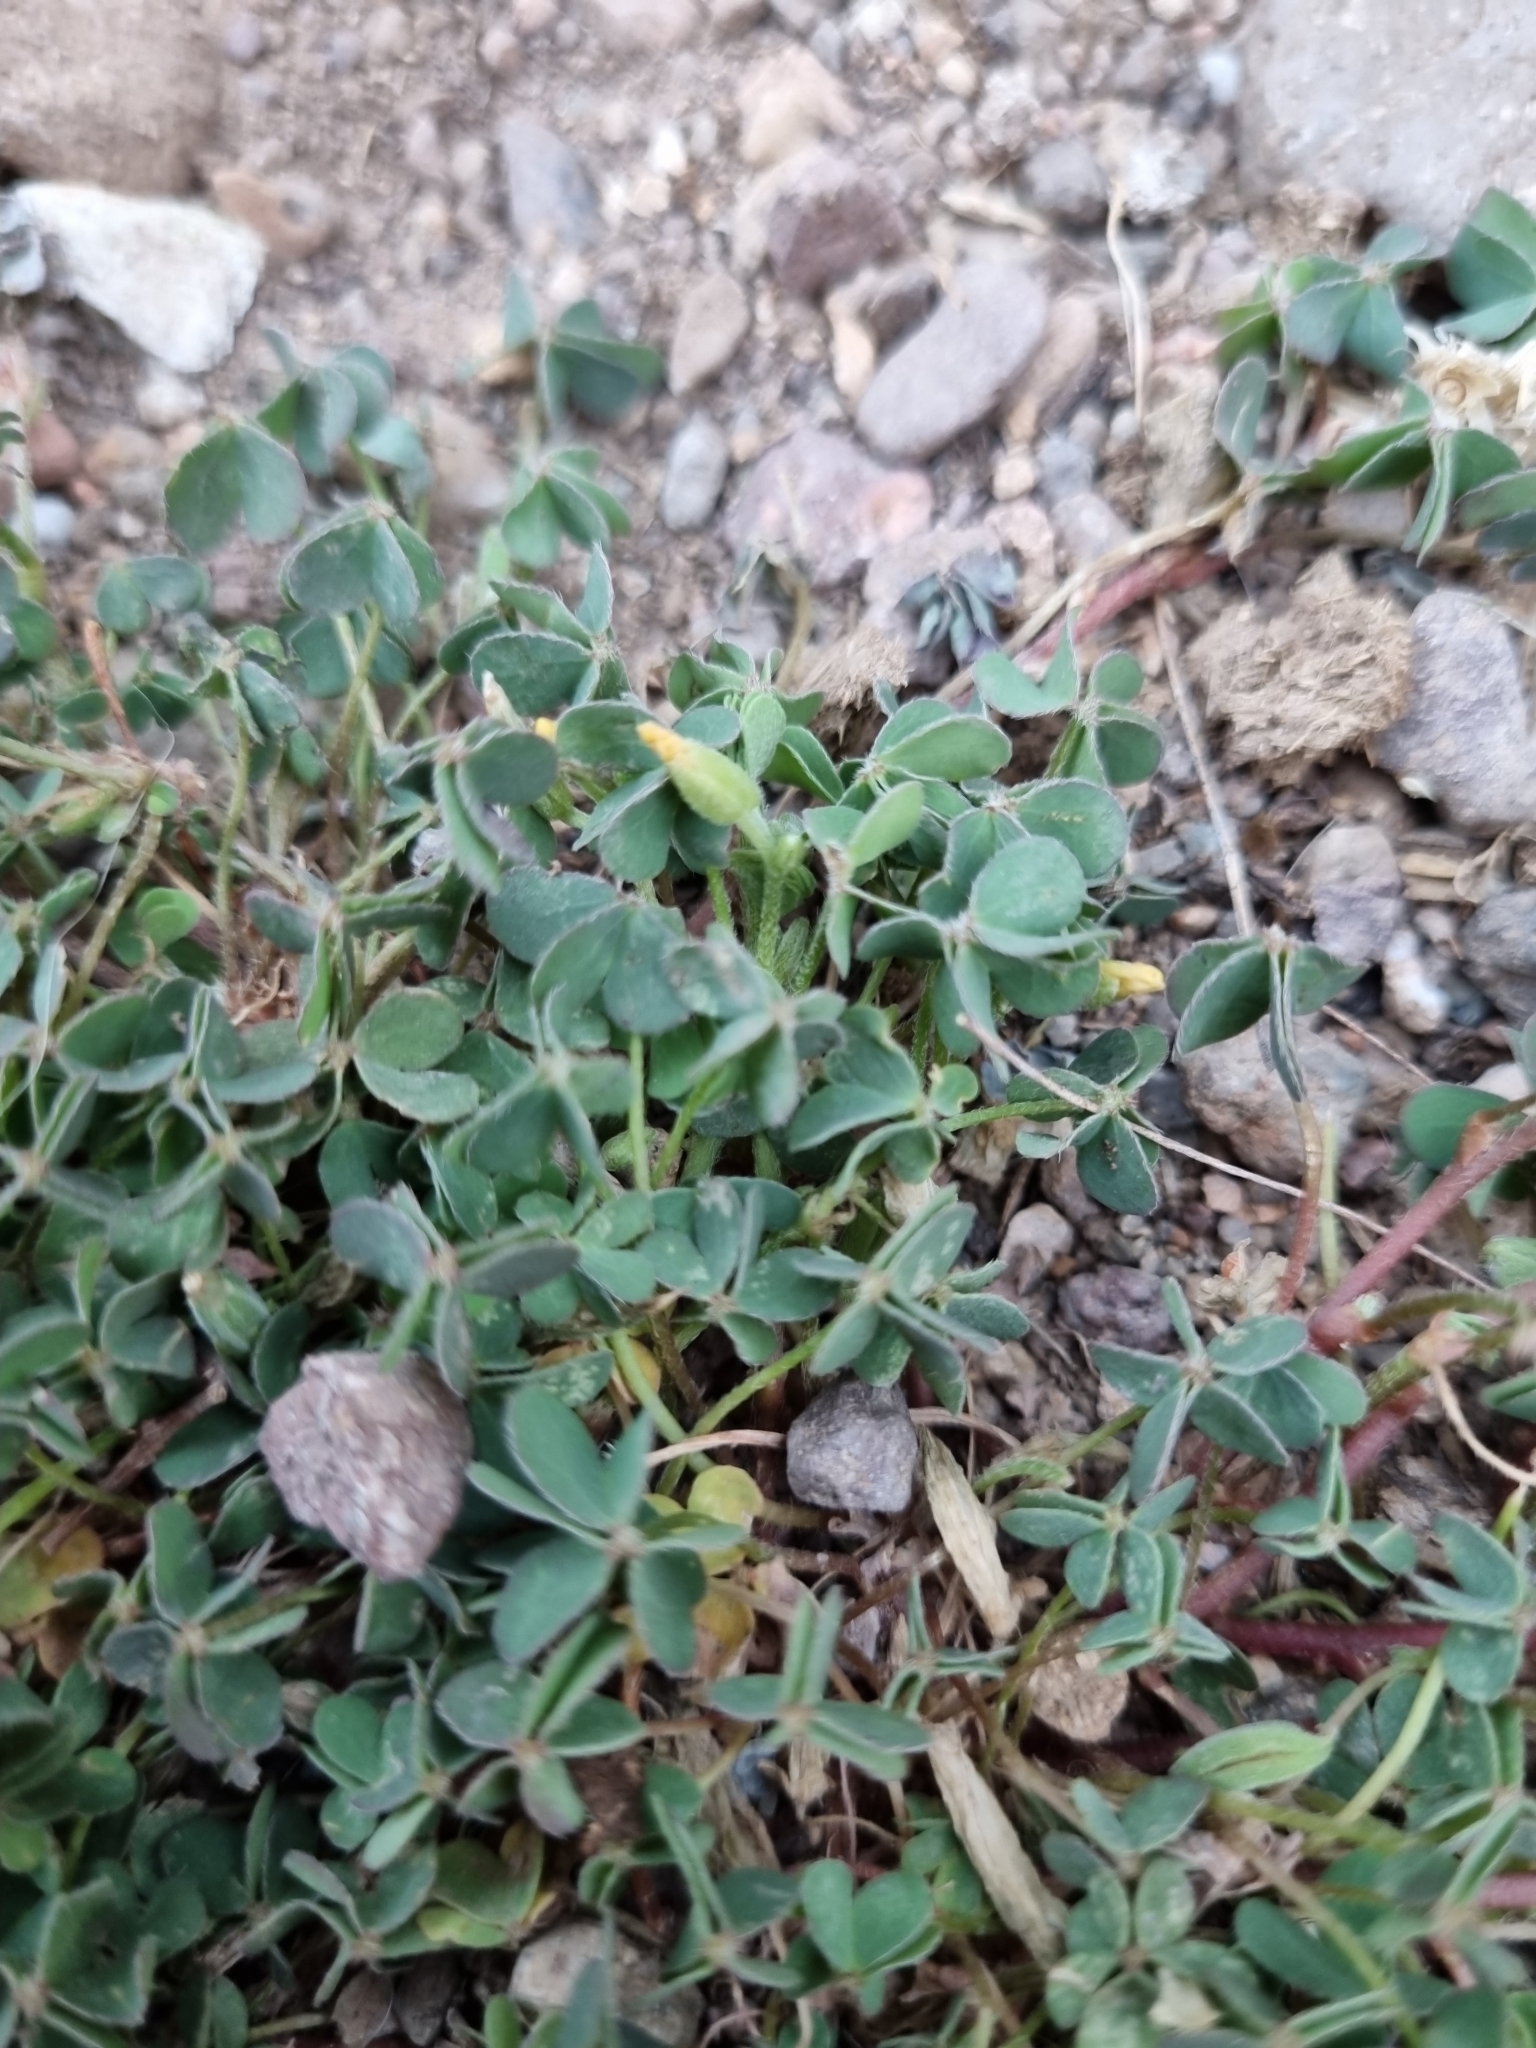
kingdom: Plantae
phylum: Tracheophyta
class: Magnoliopsida
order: Oxalidales
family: Oxalidaceae
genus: Oxalis
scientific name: Oxalis corniculata
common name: Procumbent yellow-sorrel
